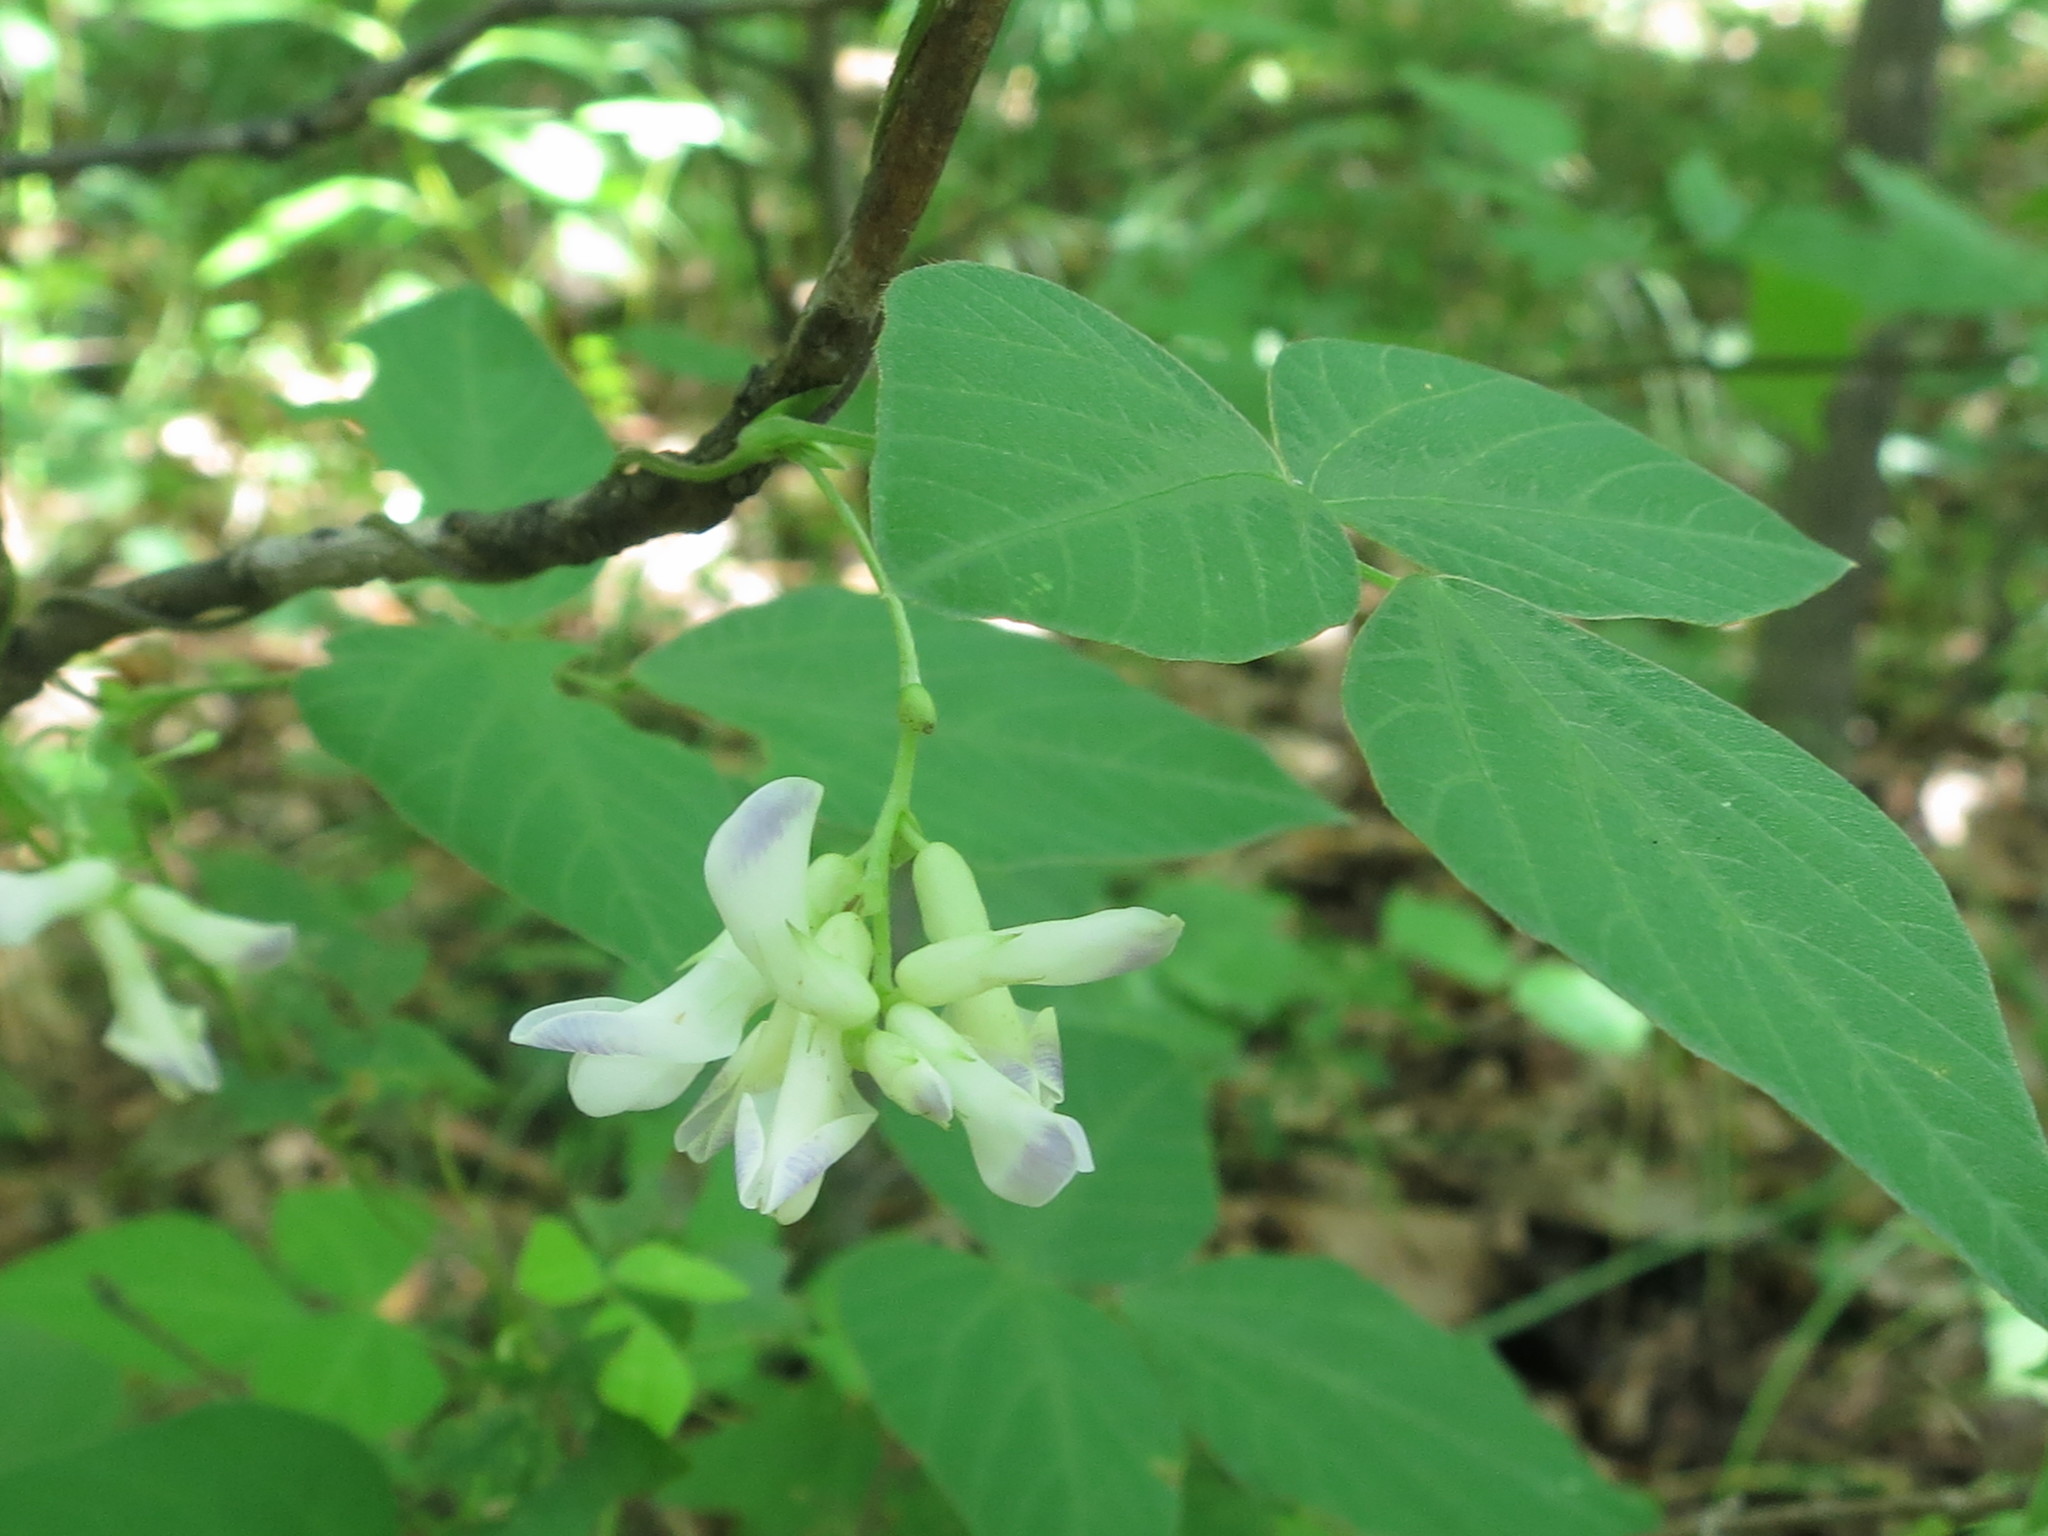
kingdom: Plantae
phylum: Tracheophyta
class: Magnoliopsida
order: Fabales
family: Fabaceae
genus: Amphicarpaea
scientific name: Amphicarpaea edgeworthii
